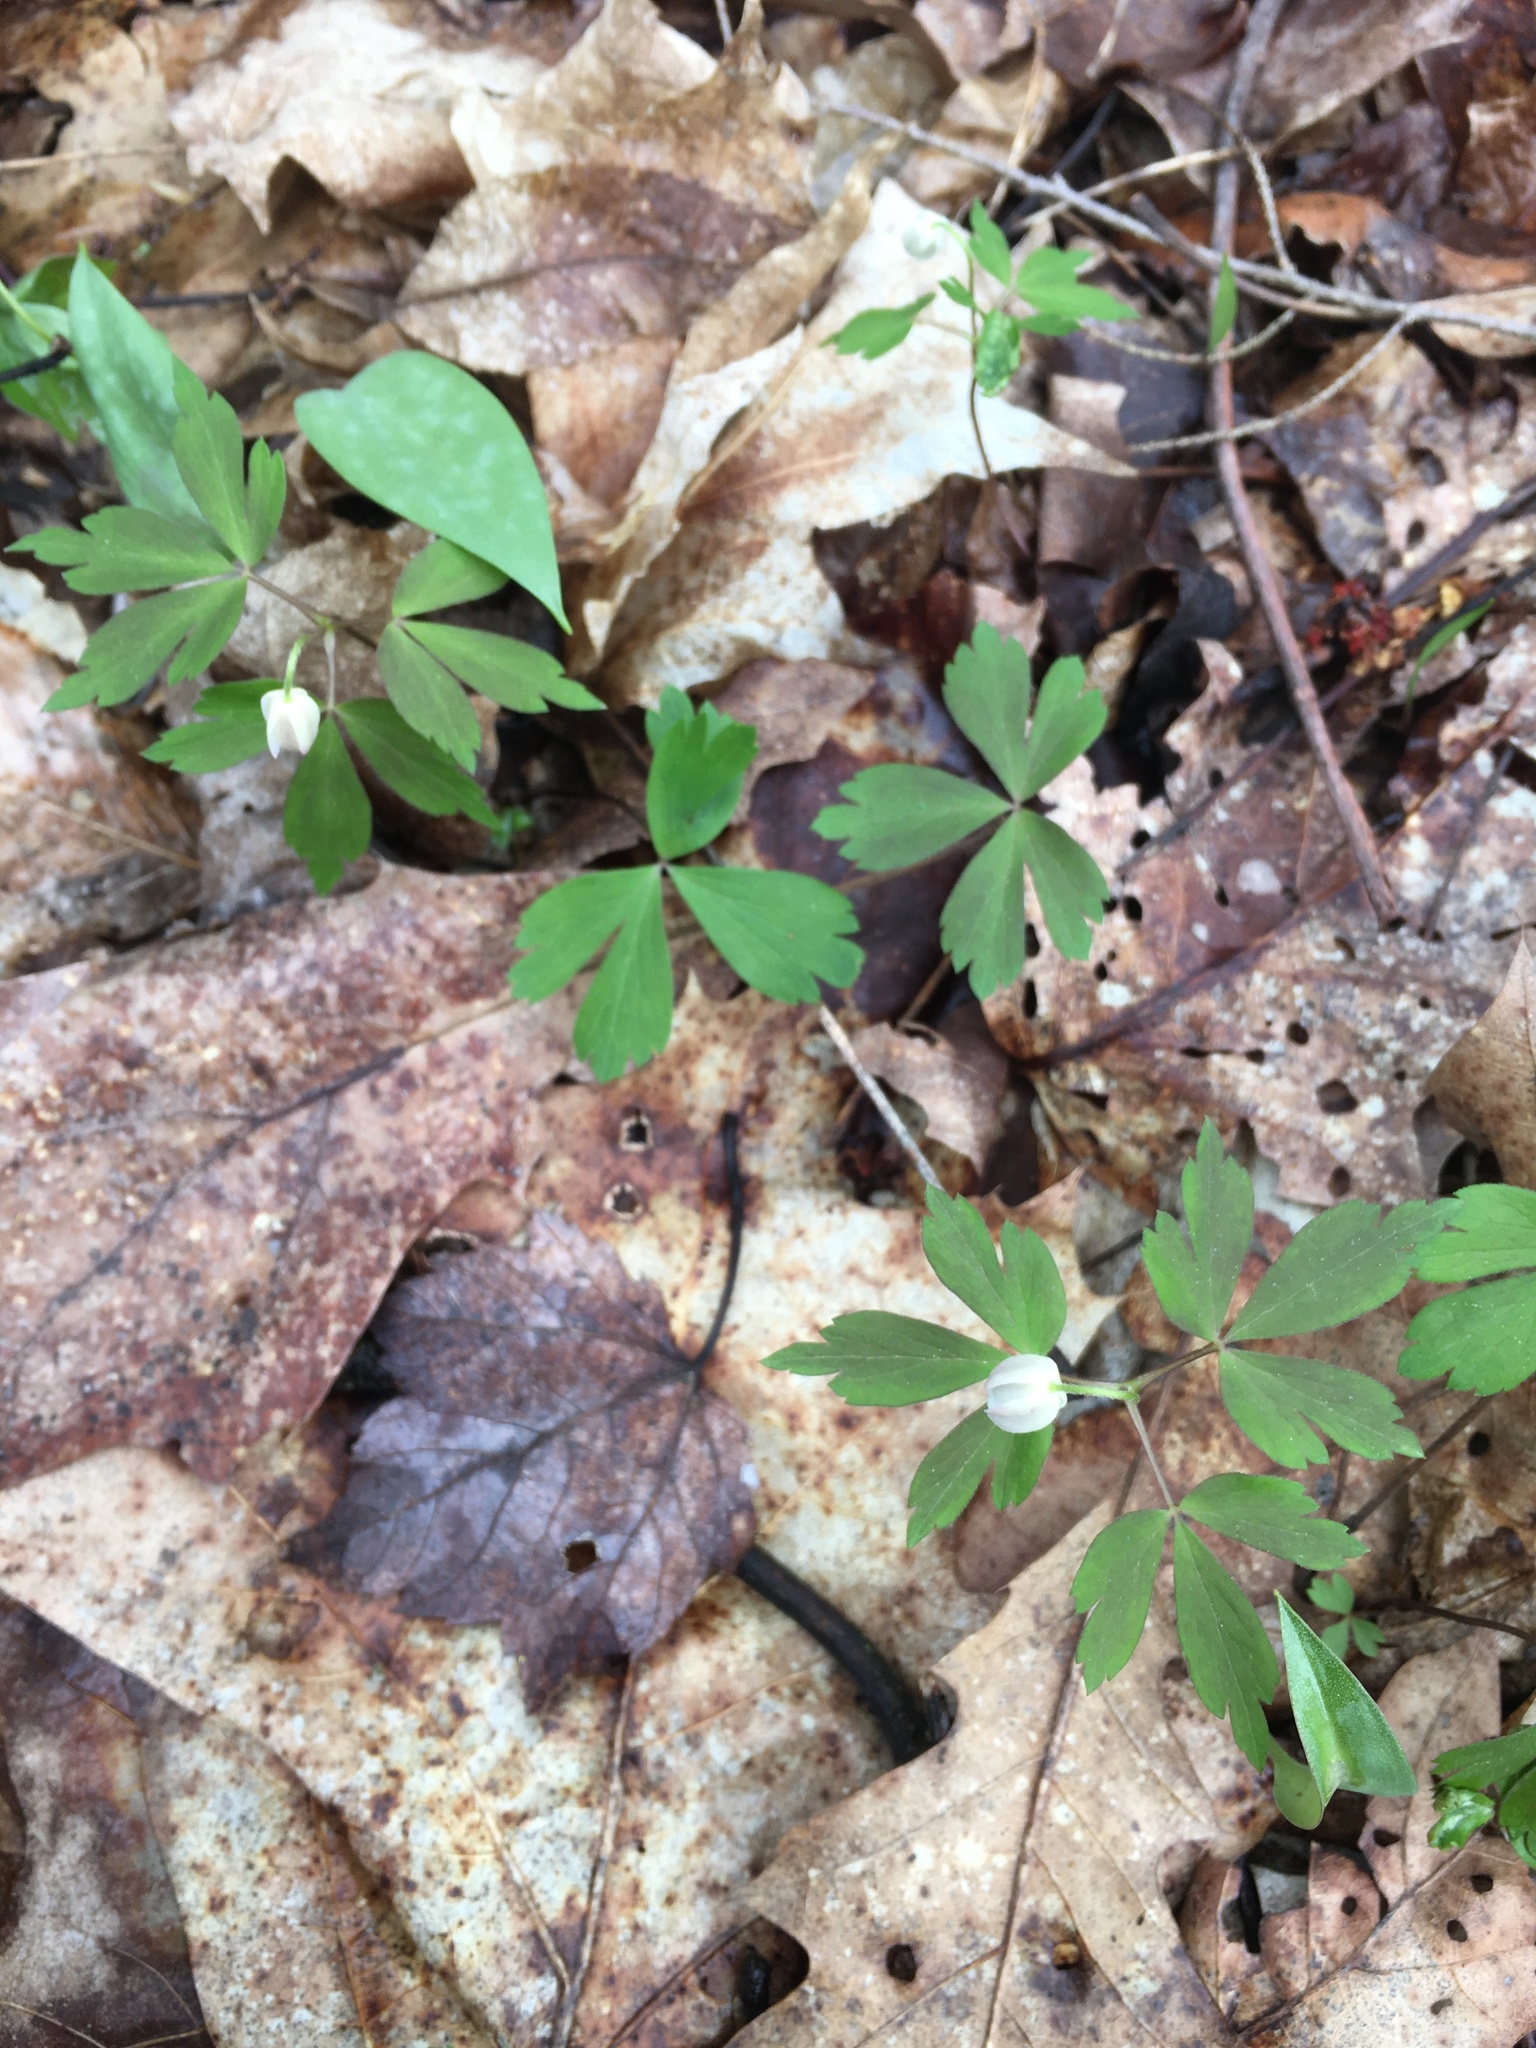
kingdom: Plantae
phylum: Tracheophyta
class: Magnoliopsida
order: Ranunculales
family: Ranunculaceae
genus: Anemone
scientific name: Anemone quinquefolia
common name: Wood anemone
